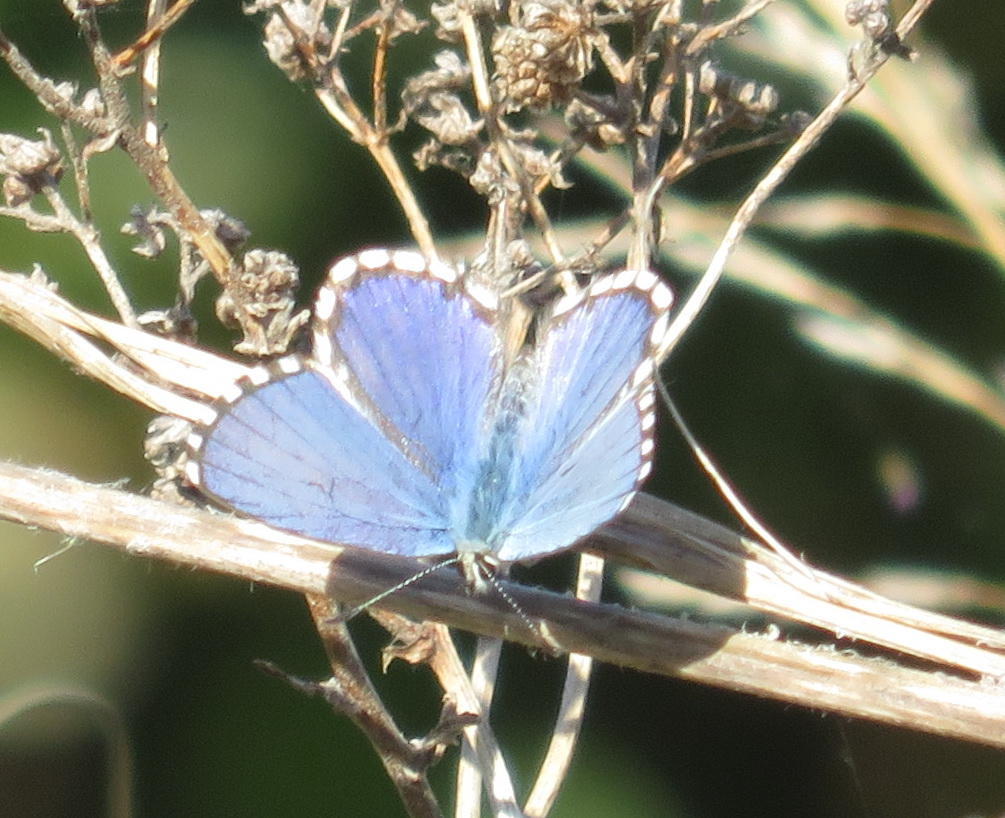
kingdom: Animalia
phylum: Arthropoda
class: Insecta
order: Lepidoptera
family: Lycaenidae
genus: Tarucus
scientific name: Tarucus thespis
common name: Vivid dotted blue
